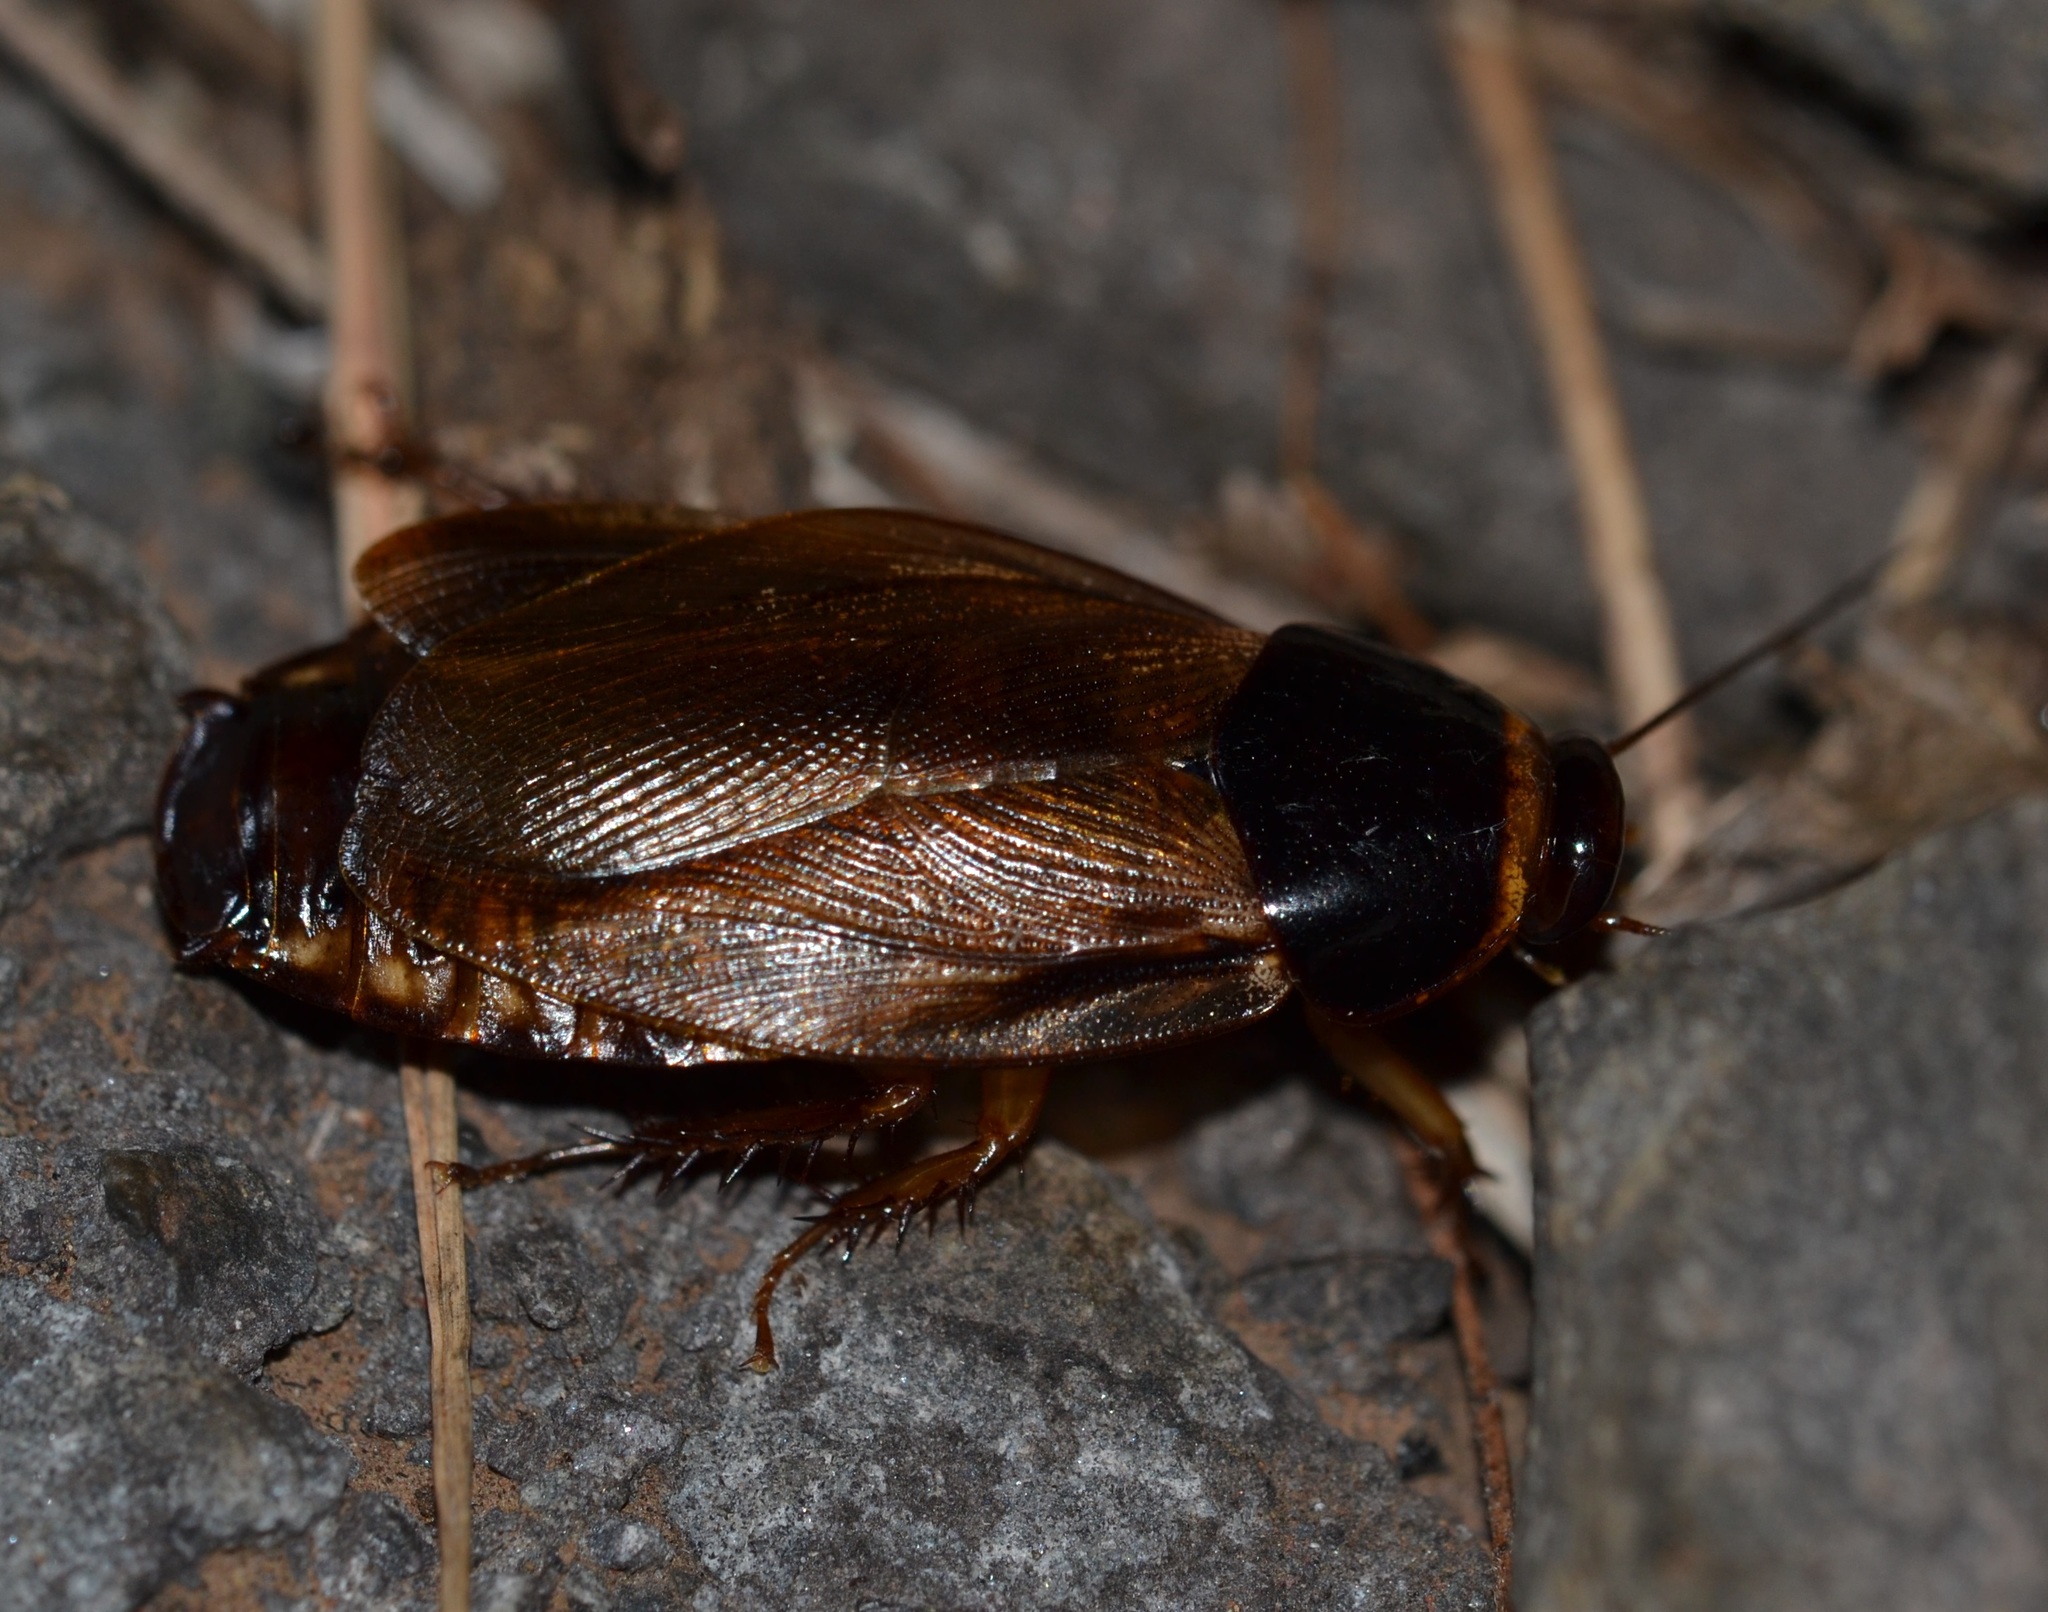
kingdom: Animalia
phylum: Arthropoda
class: Insecta
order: Blattodea
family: Blaberidae
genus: Pycnoscelus
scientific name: Pycnoscelus surinamensis
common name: Surinam cockroach
